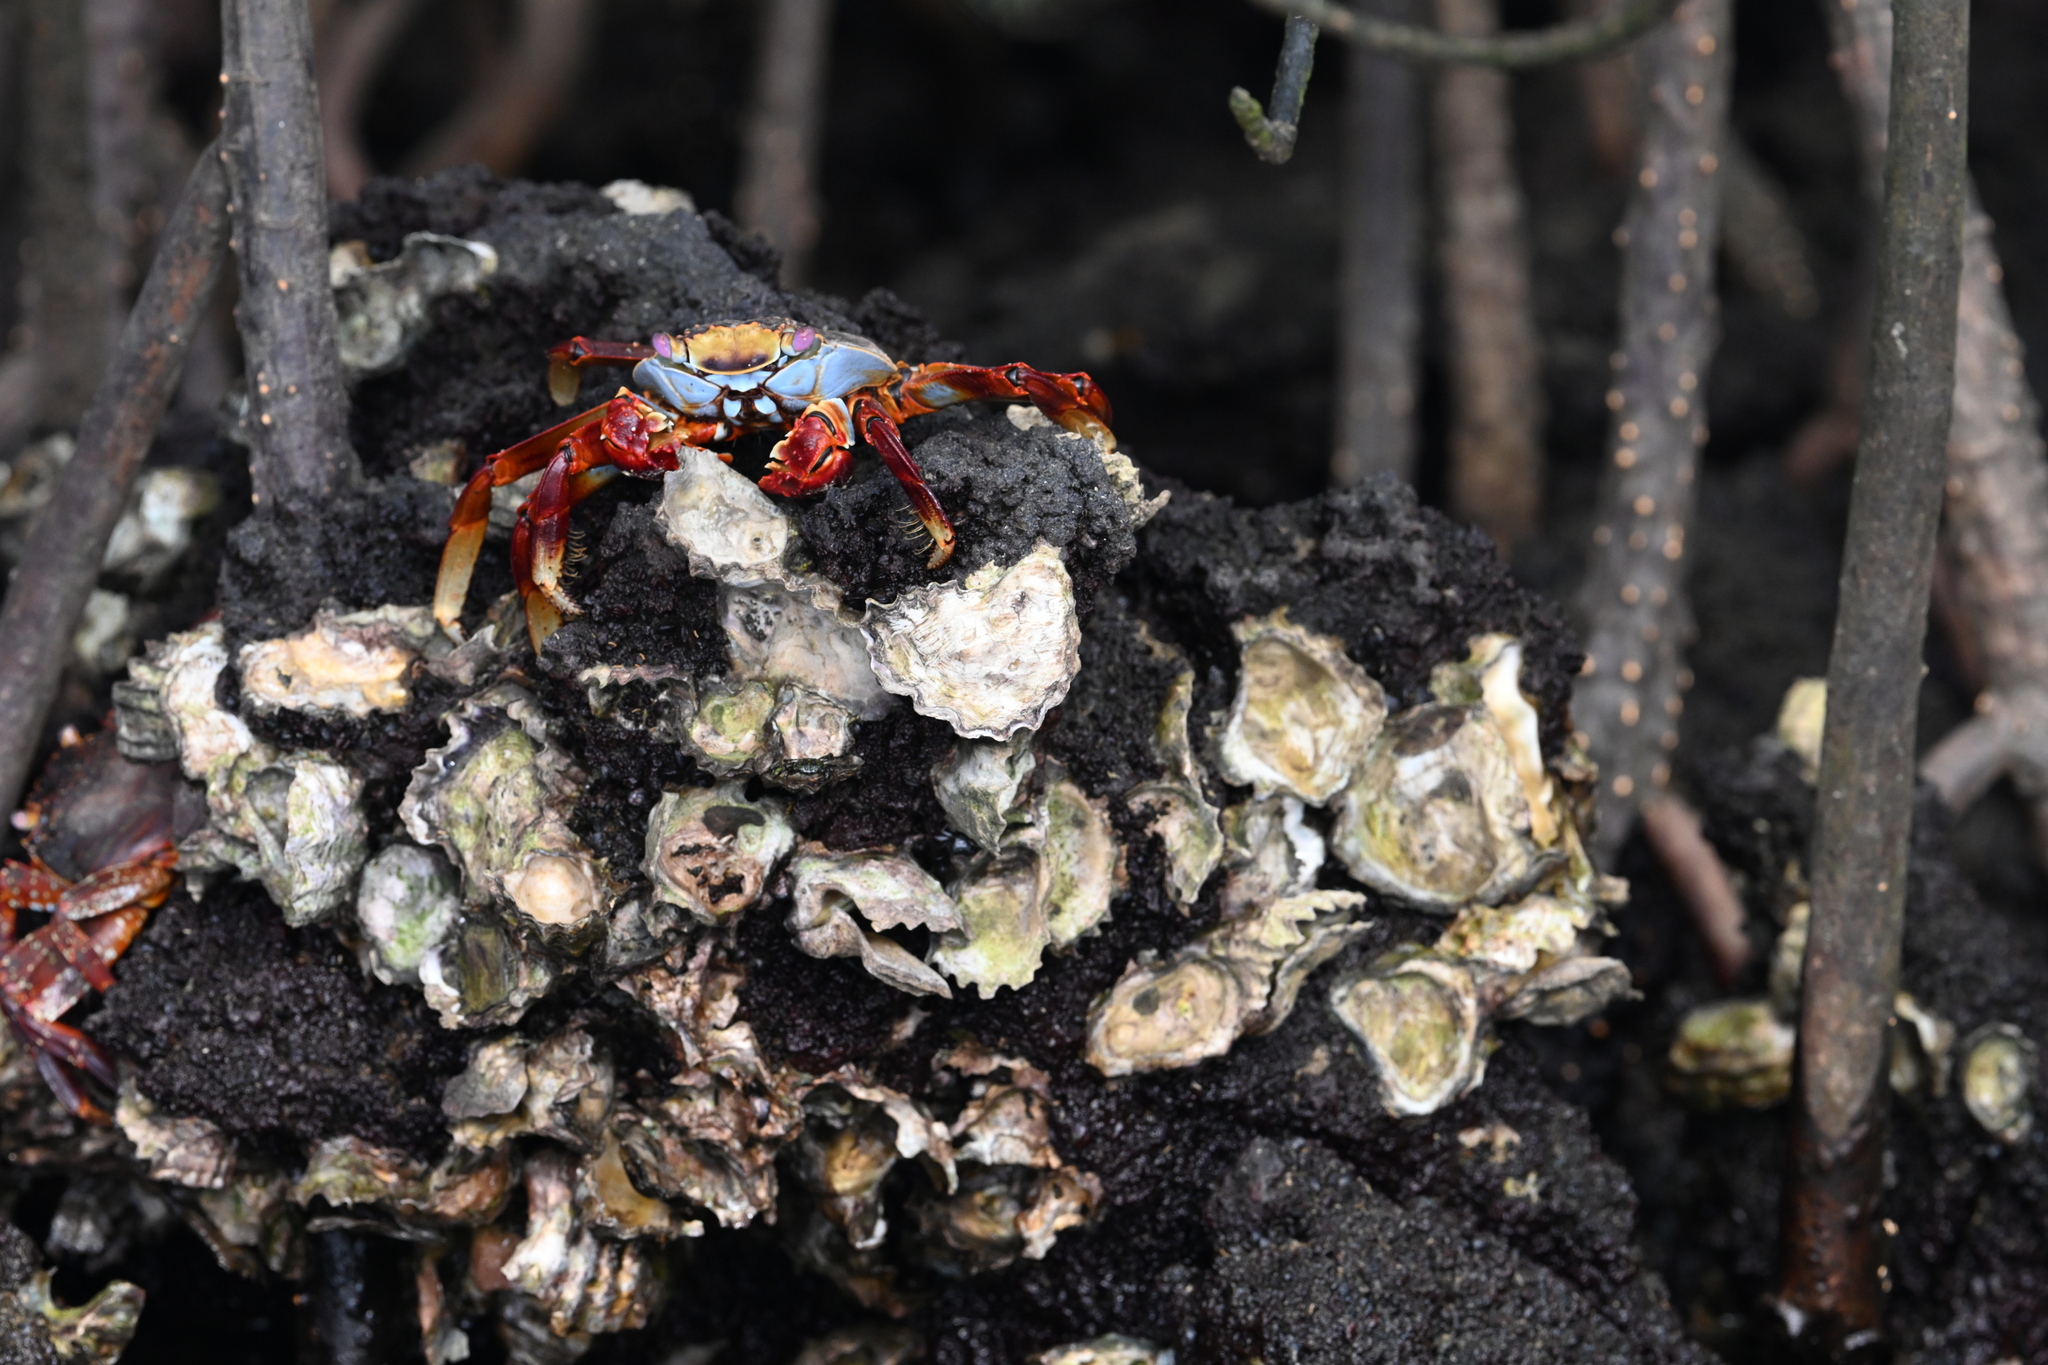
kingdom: Animalia
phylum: Arthropoda
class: Malacostraca
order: Decapoda
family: Grapsidae
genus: Grapsus
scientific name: Grapsus grapsus
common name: Sally lightfoot
